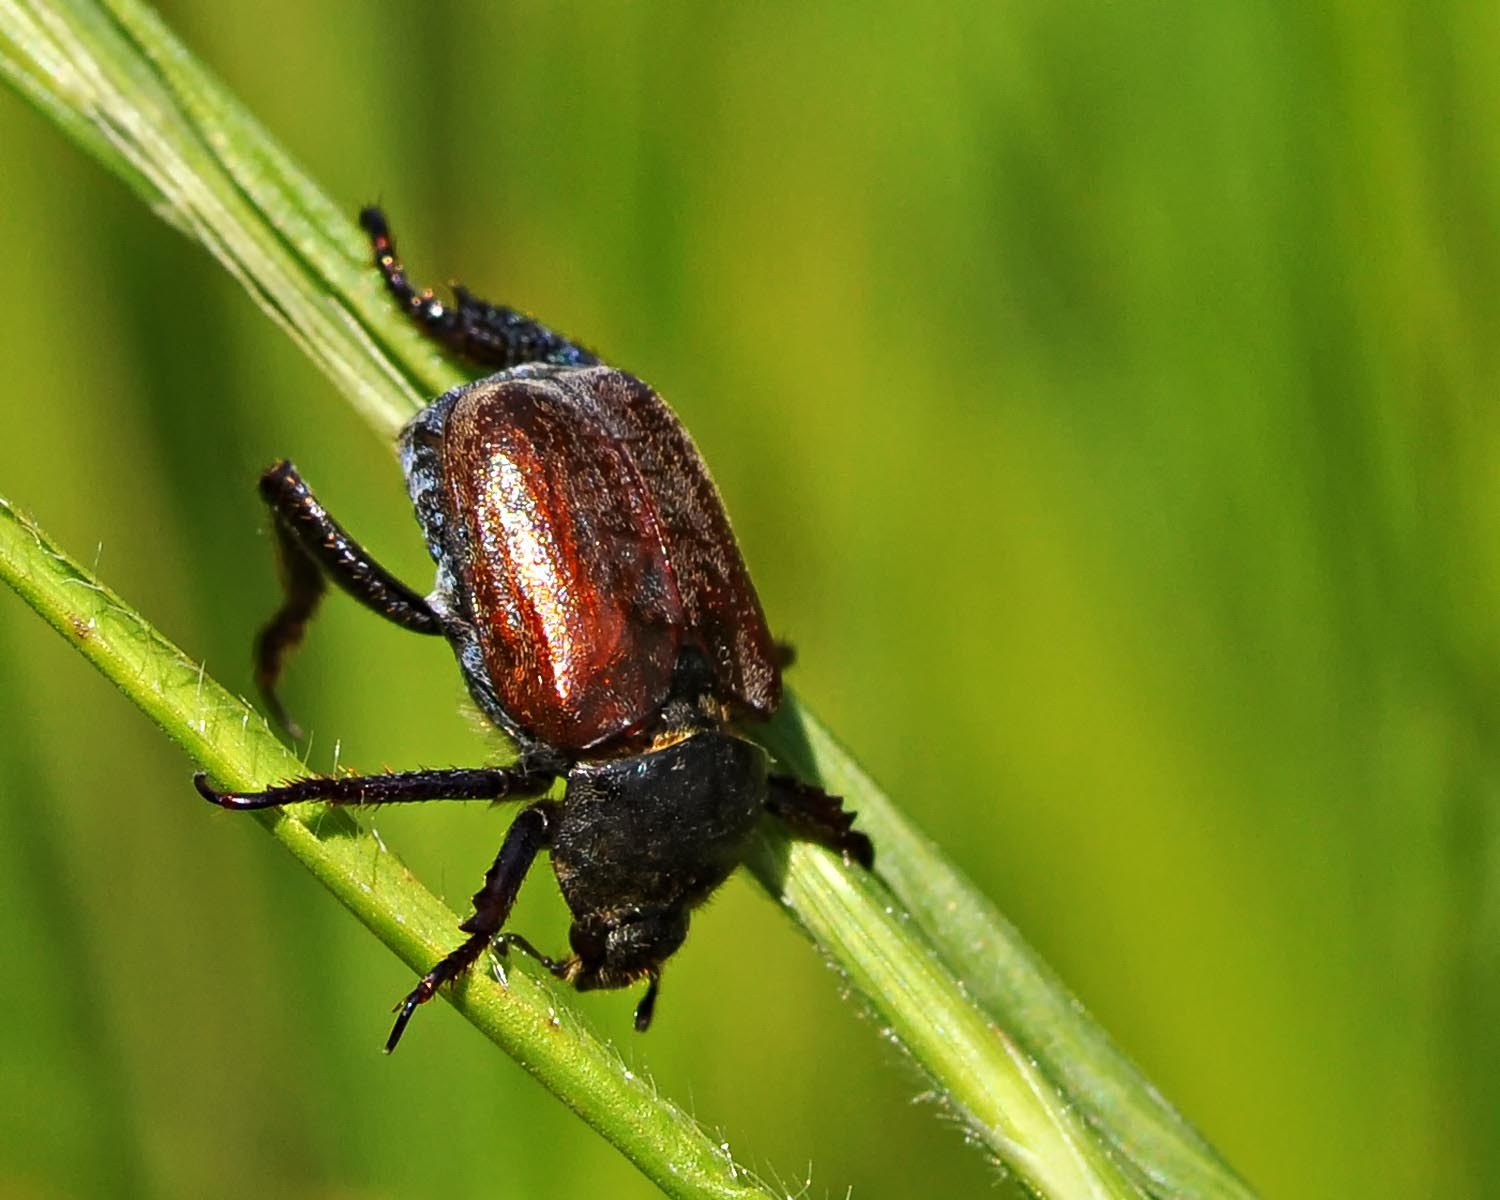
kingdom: Animalia
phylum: Arthropoda
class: Insecta
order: Coleoptera
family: Scarabaeidae
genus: Hoplia
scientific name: Hoplia philanthus
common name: Welsh chafer
